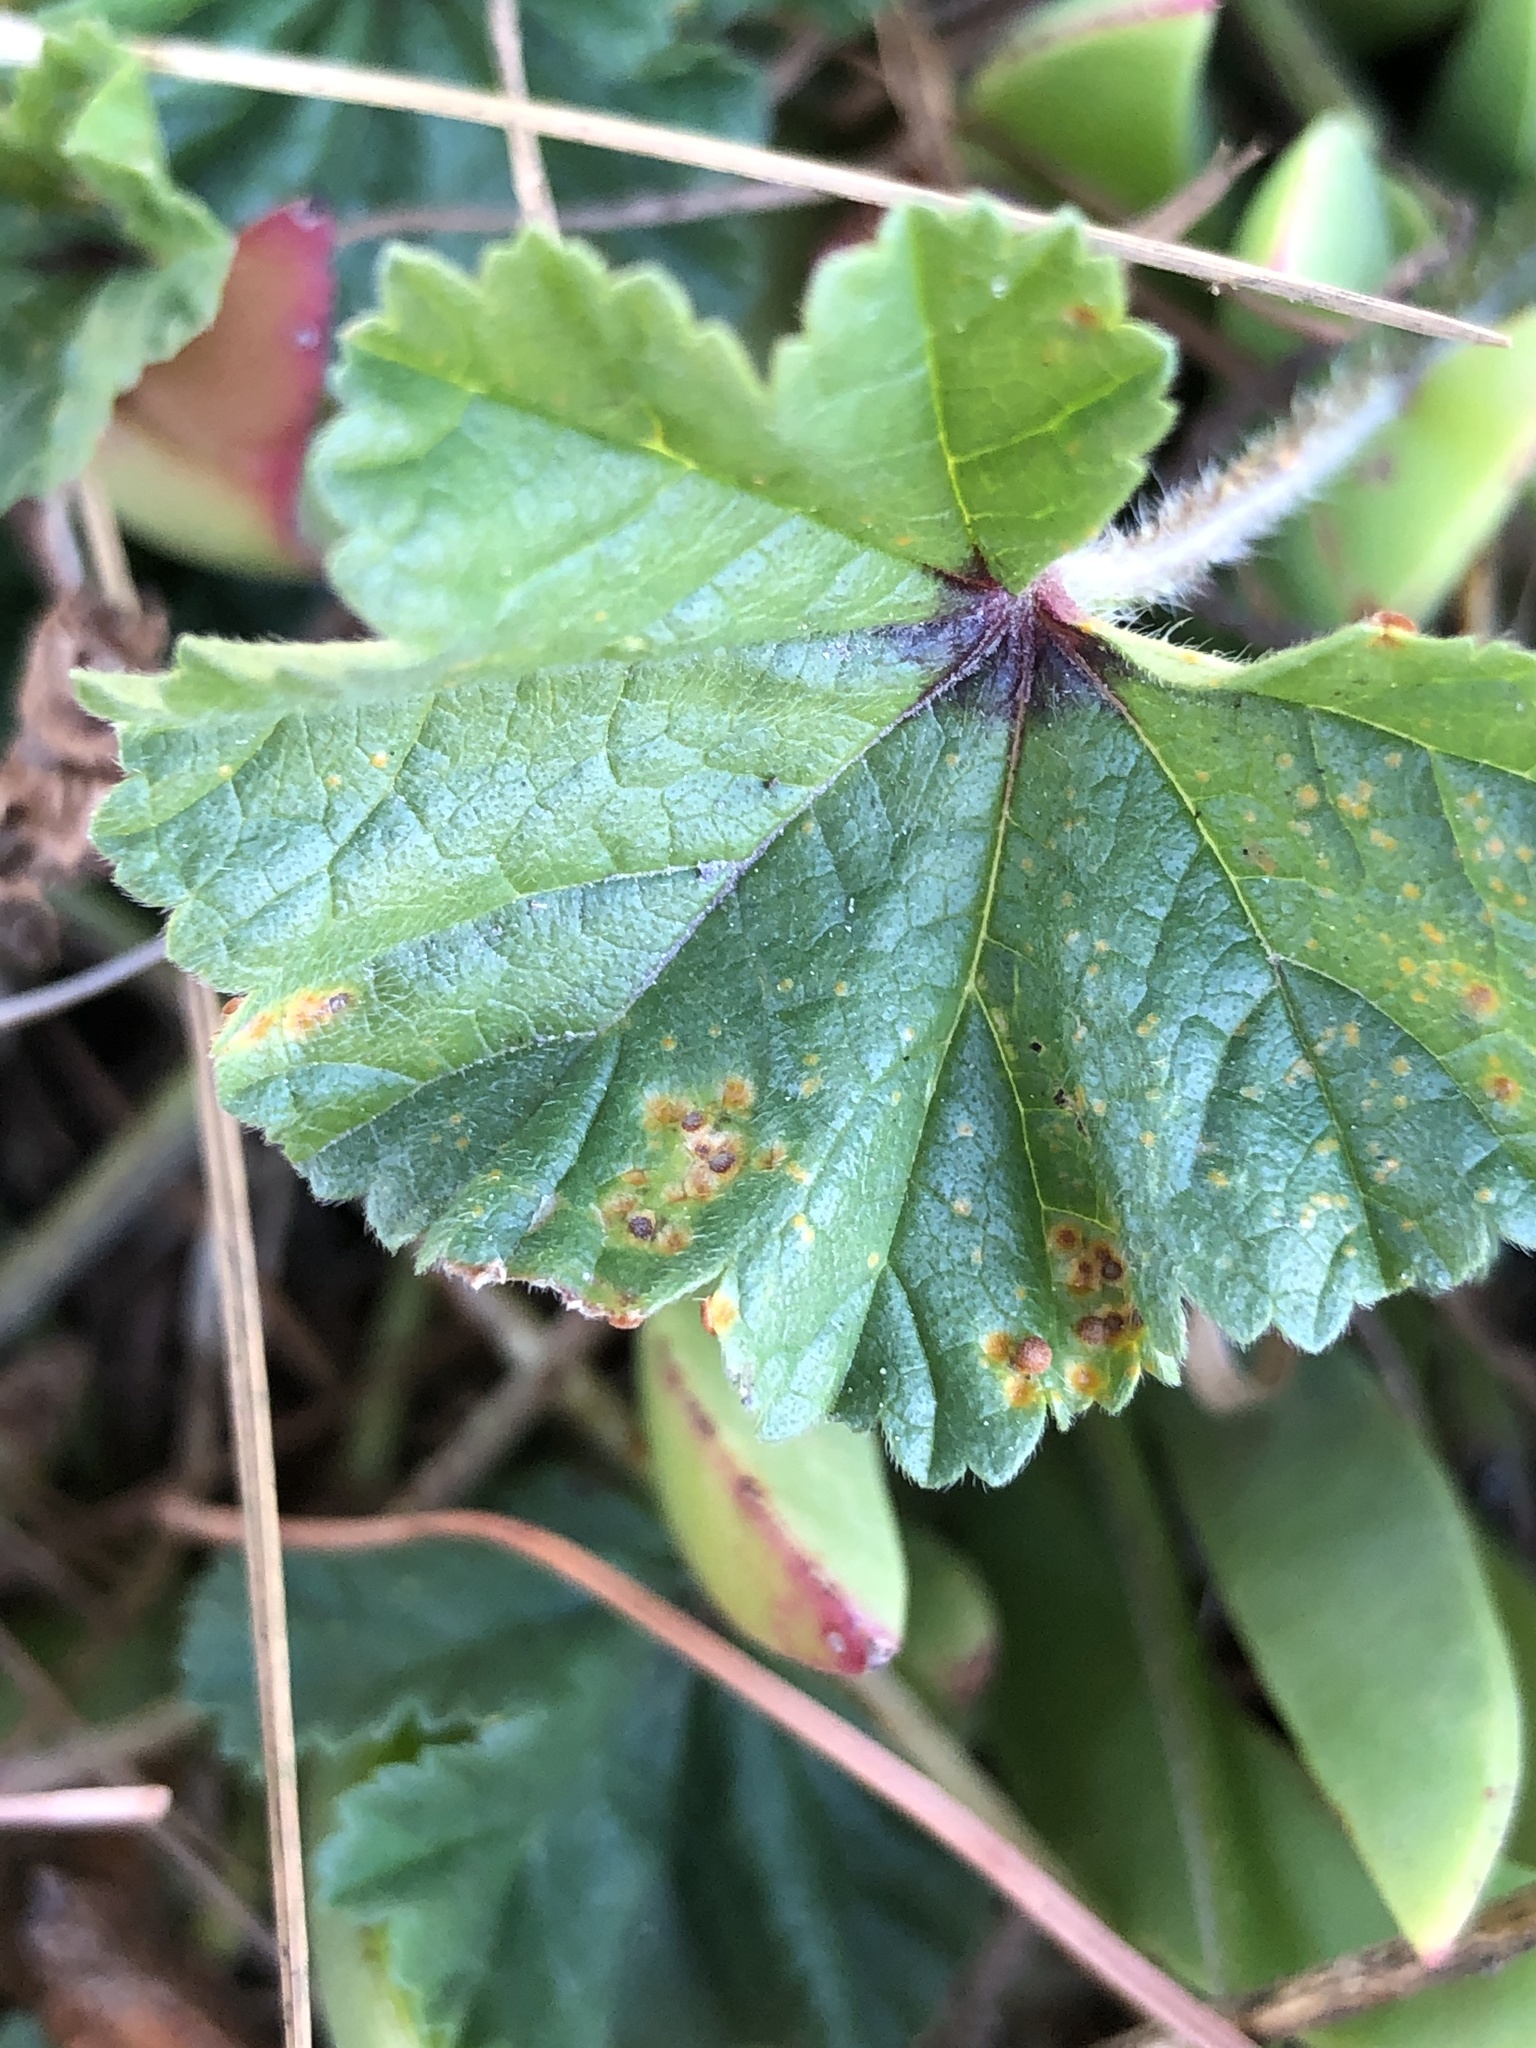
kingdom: Fungi
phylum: Basidiomycota
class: Pucciniomycetes
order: Pucciniales
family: Pucciniaceae
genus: Puccinia
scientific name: Puccinia malvacearum
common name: Hollyhock rust
